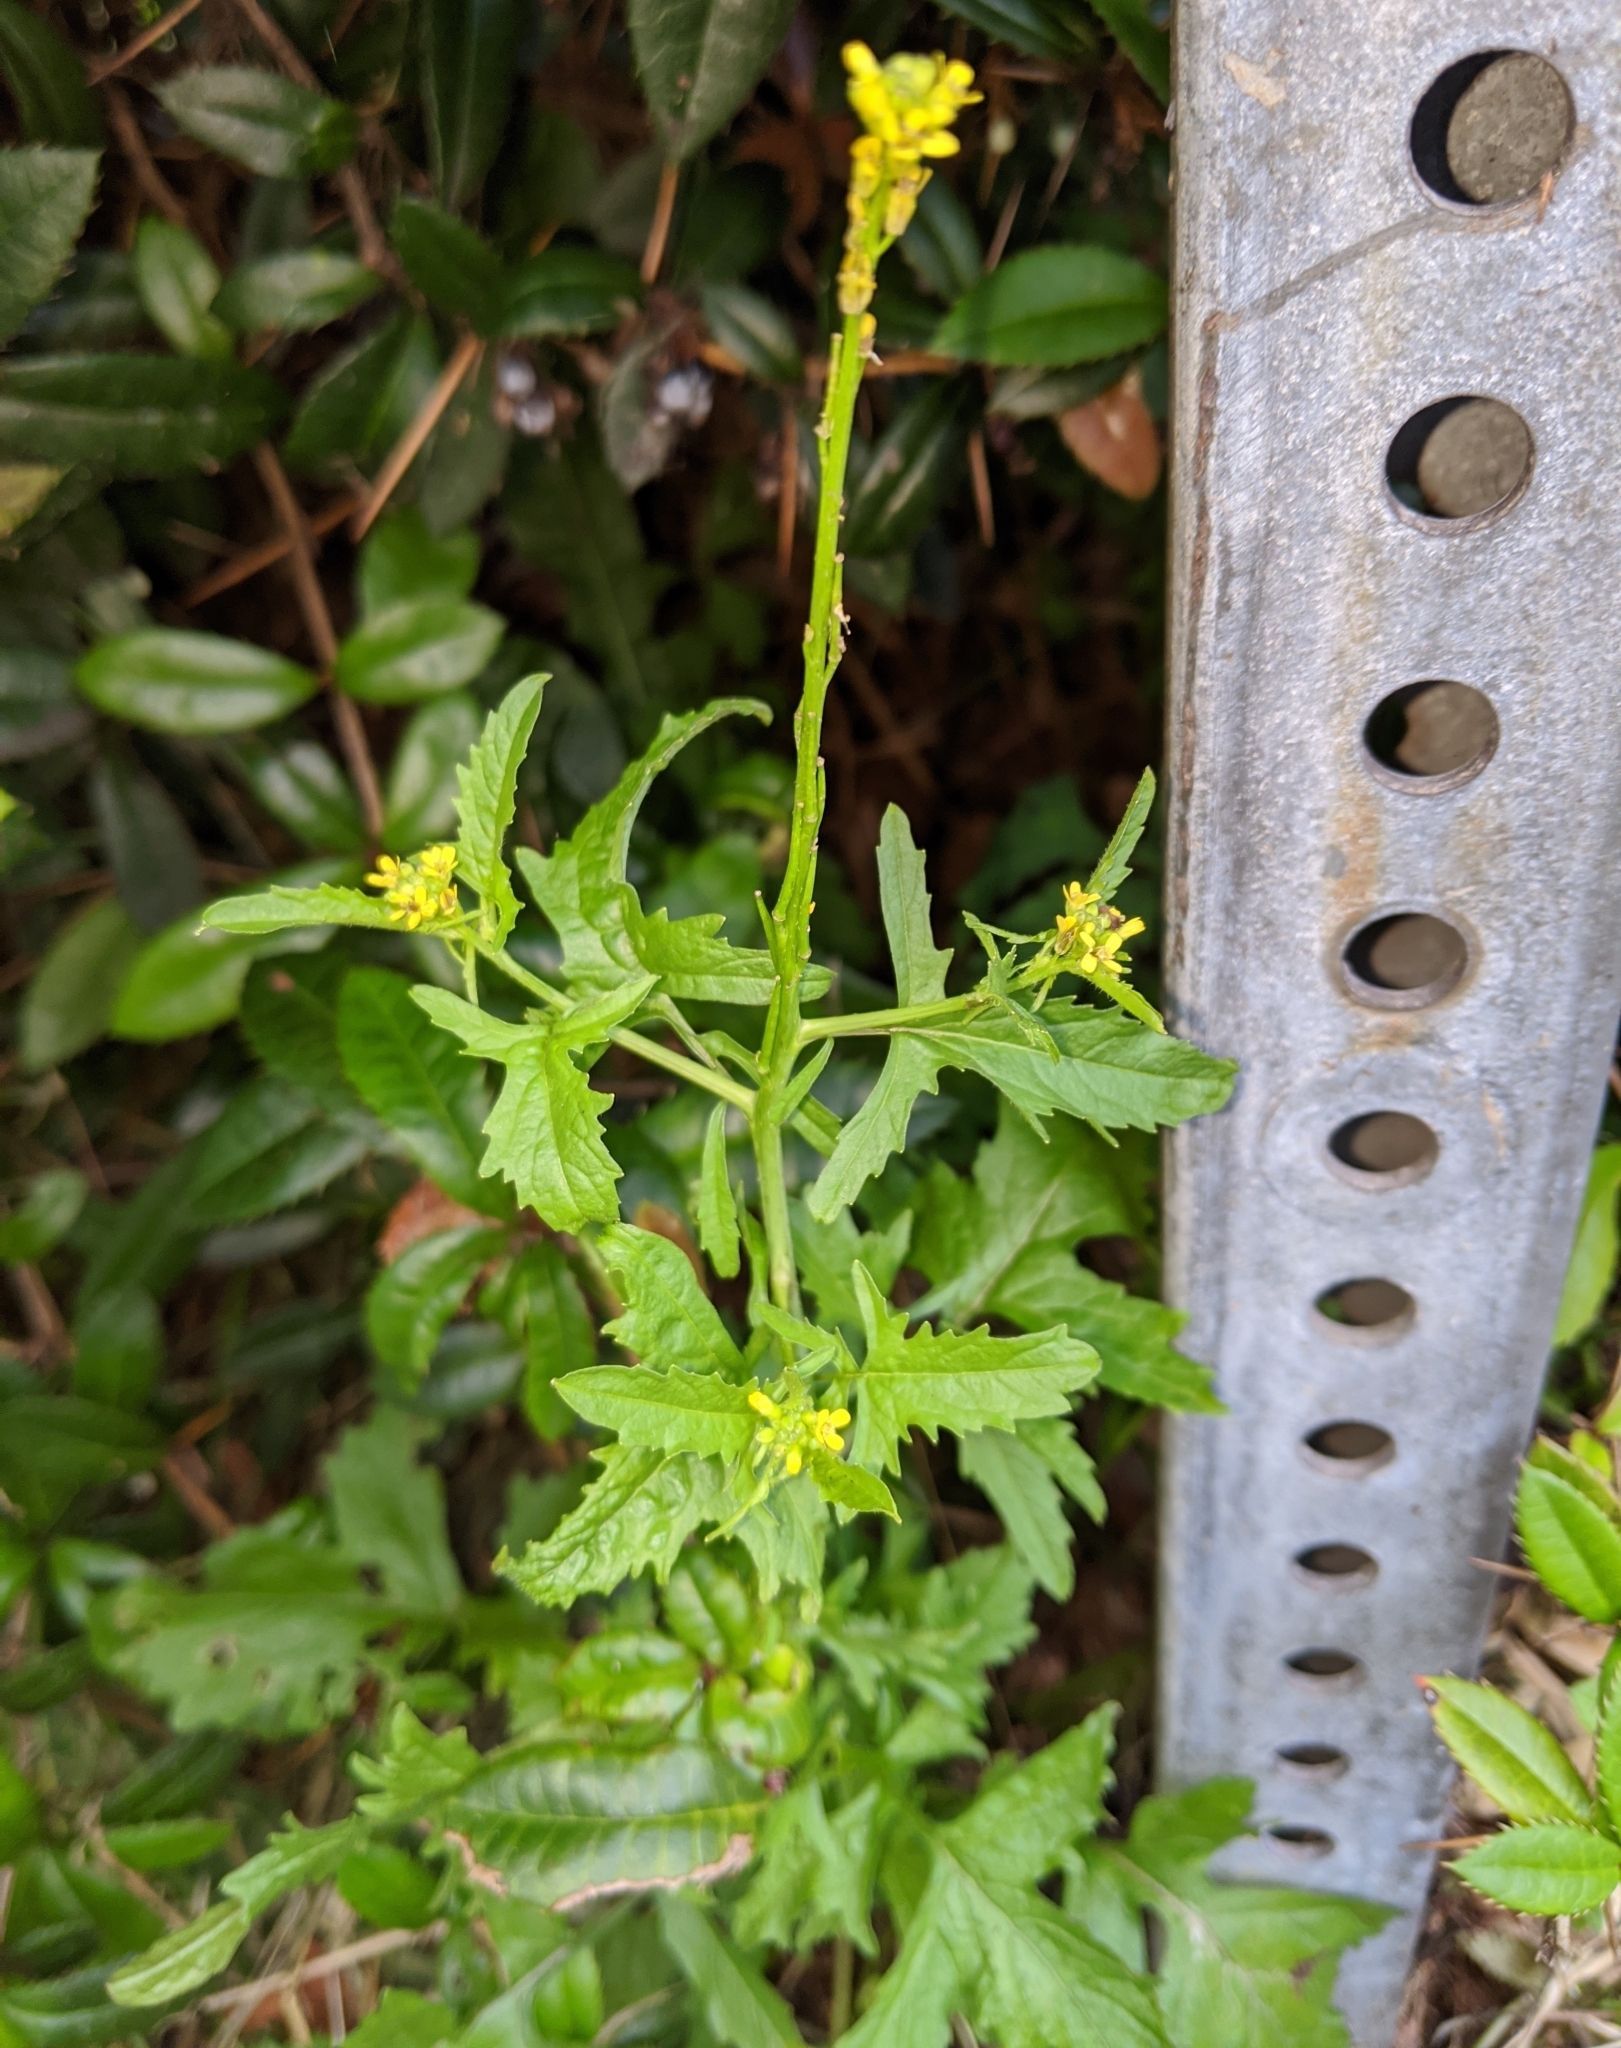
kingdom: Plantae
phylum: Tracheophyta
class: Magnoliopsida
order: Brassicales
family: Brassicaceae
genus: Sisymbrium
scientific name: Sisymbrium officinale
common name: Hedge mustard
